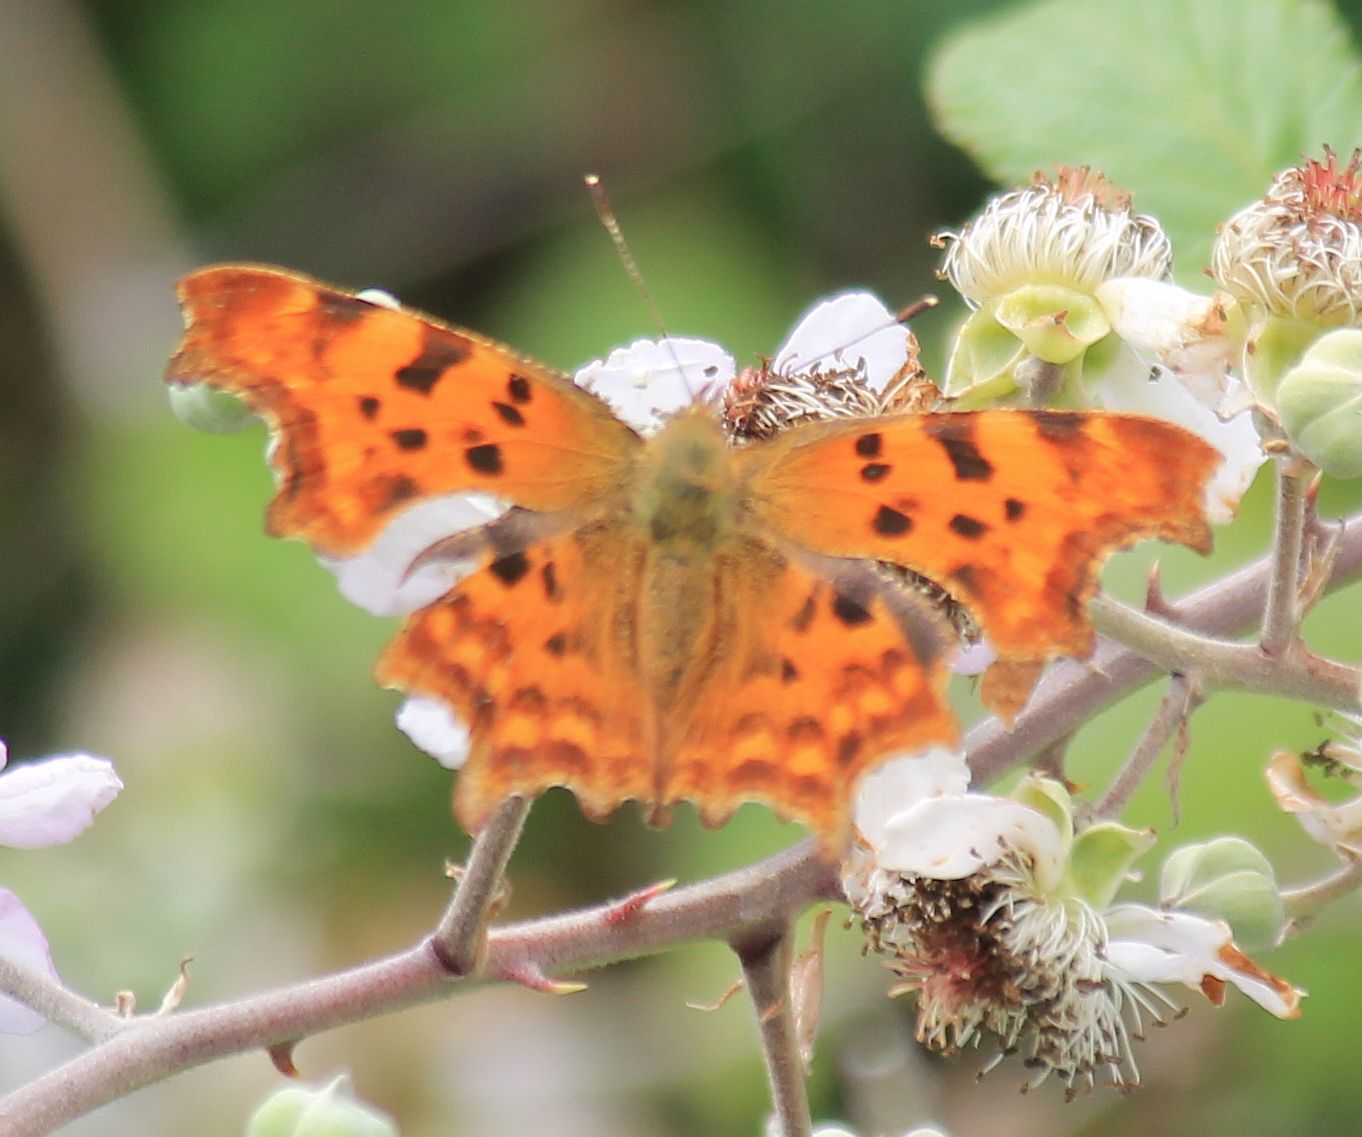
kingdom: Animalia
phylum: Arthropoda
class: Insecta
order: Lepidoptera
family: Nymphalidae
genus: Polygonia
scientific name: Polygonia c-album
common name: Comma
